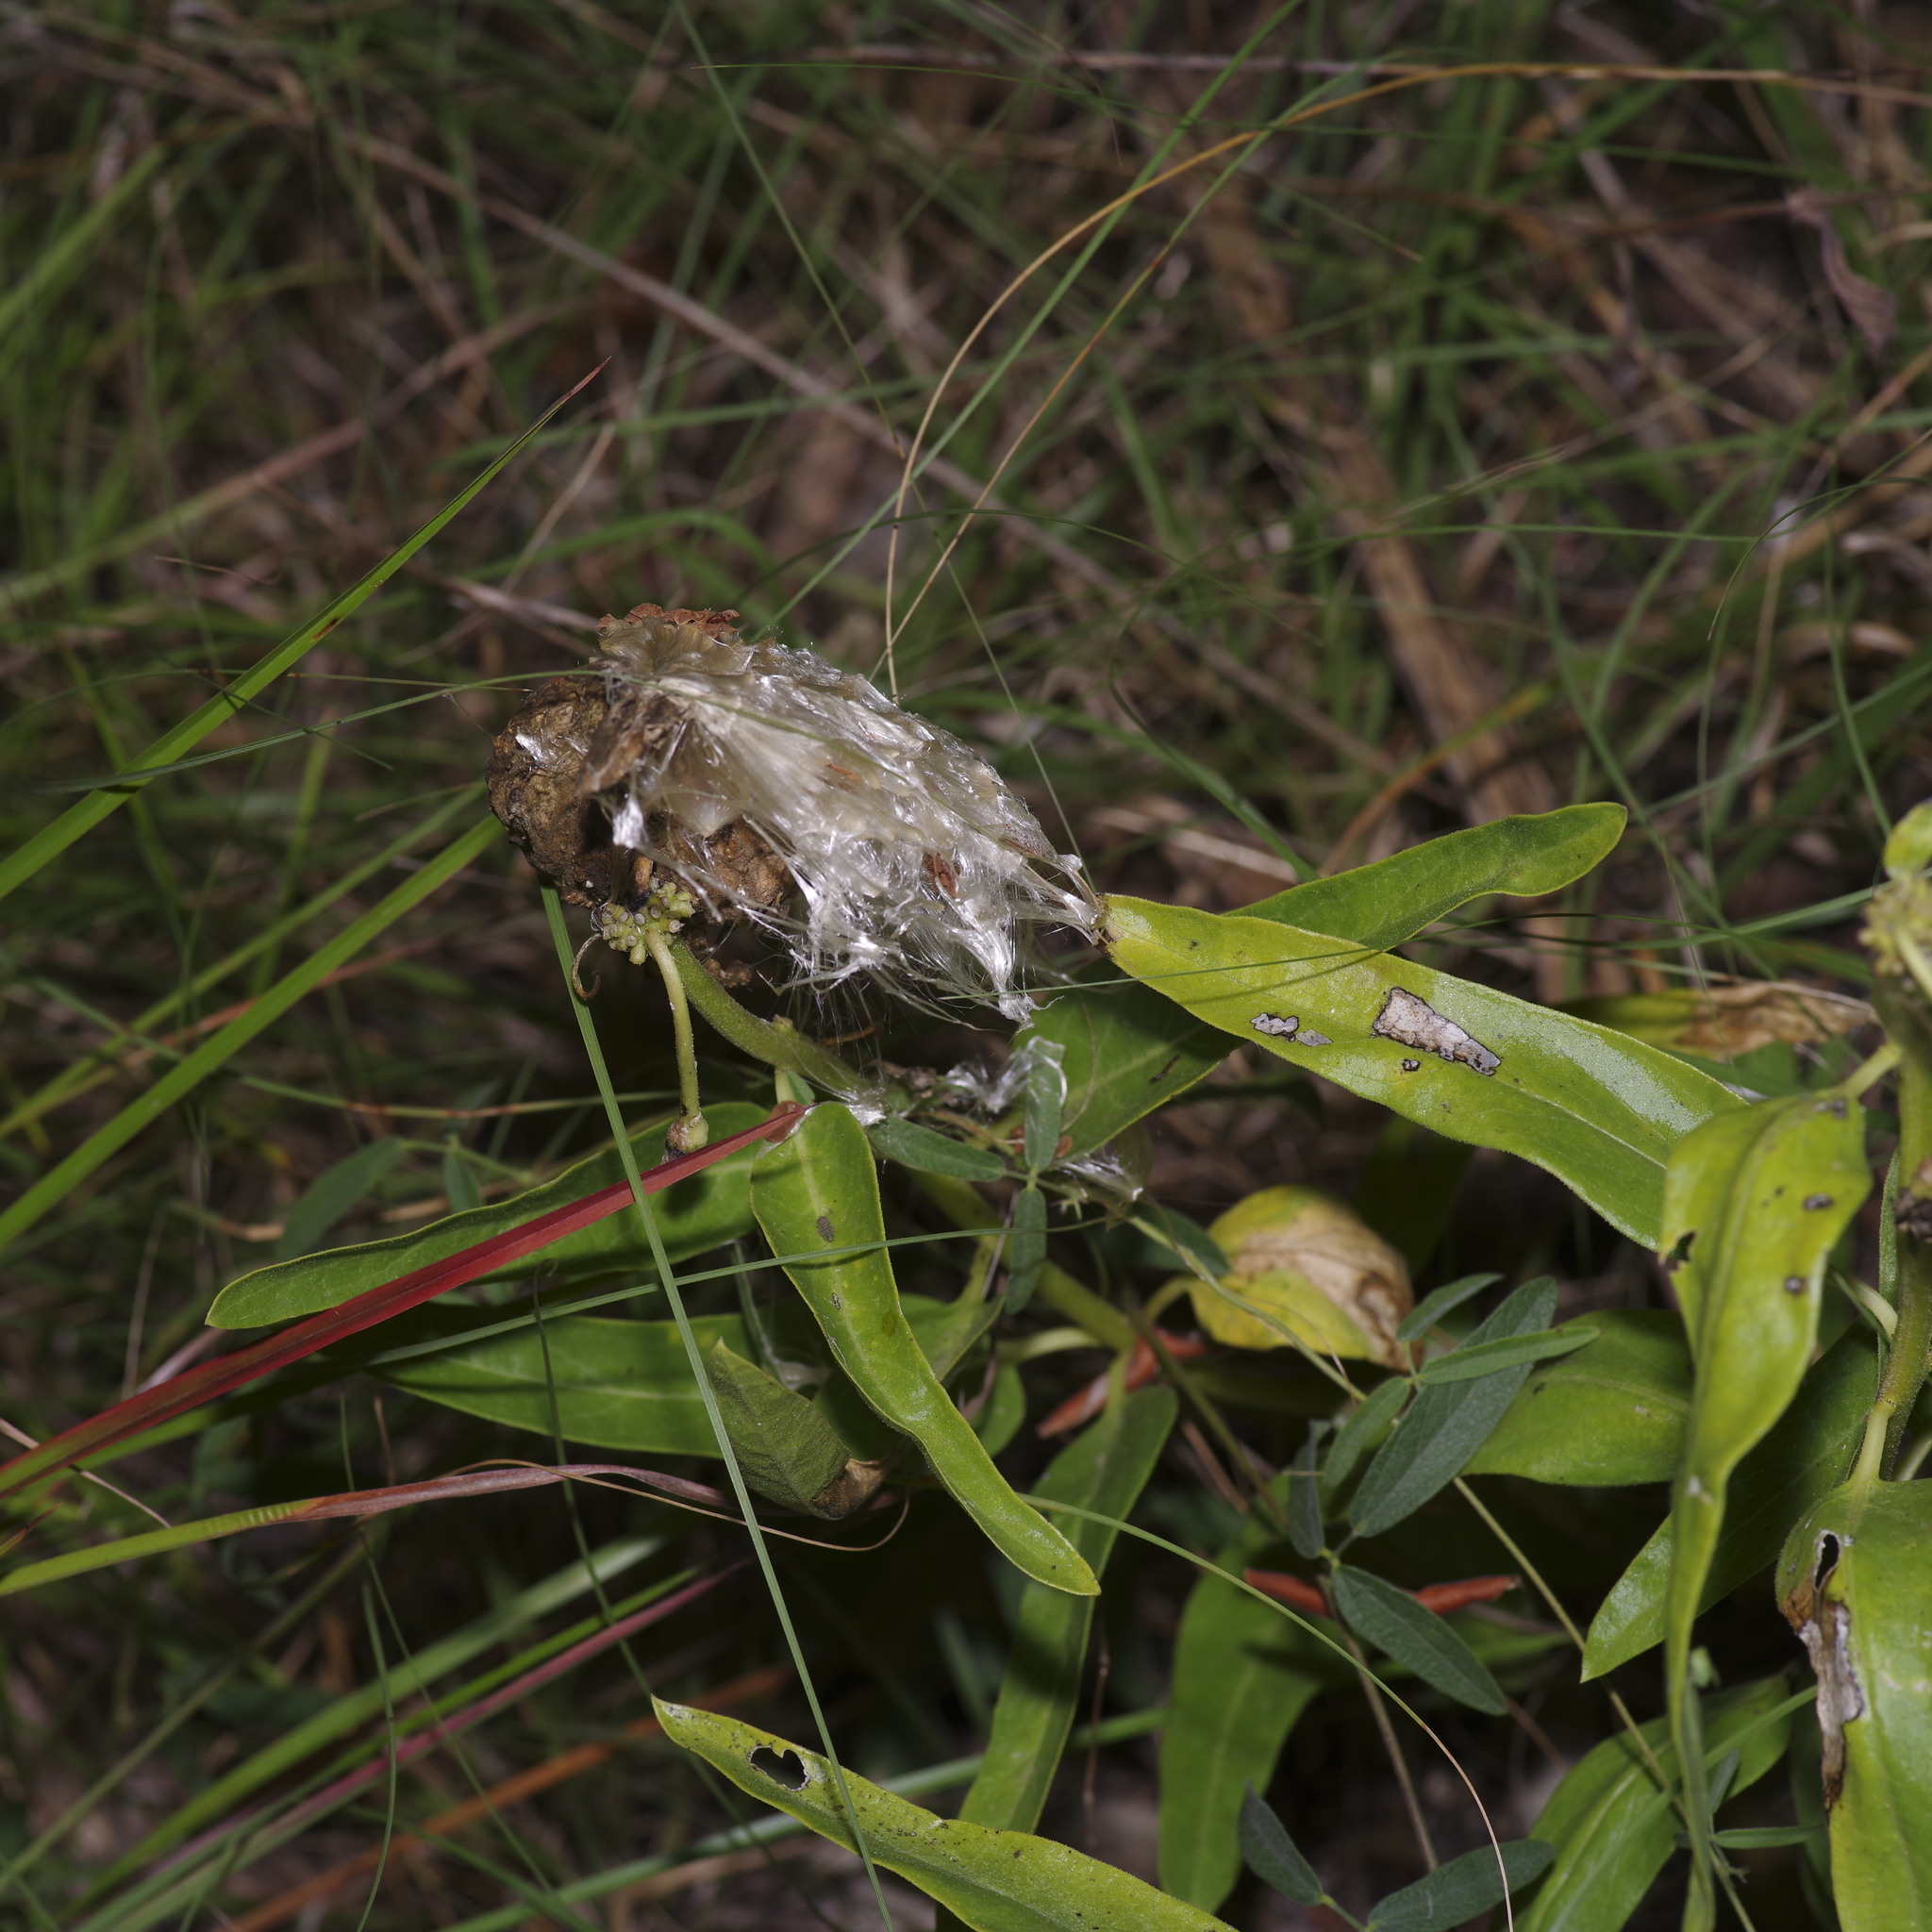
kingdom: Plantae
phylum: Tracheophyta
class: Magnoliopsida
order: Gentianales
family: Apocynaceae
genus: Asclepias
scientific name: Asclepias asperula
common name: Antelope horns
